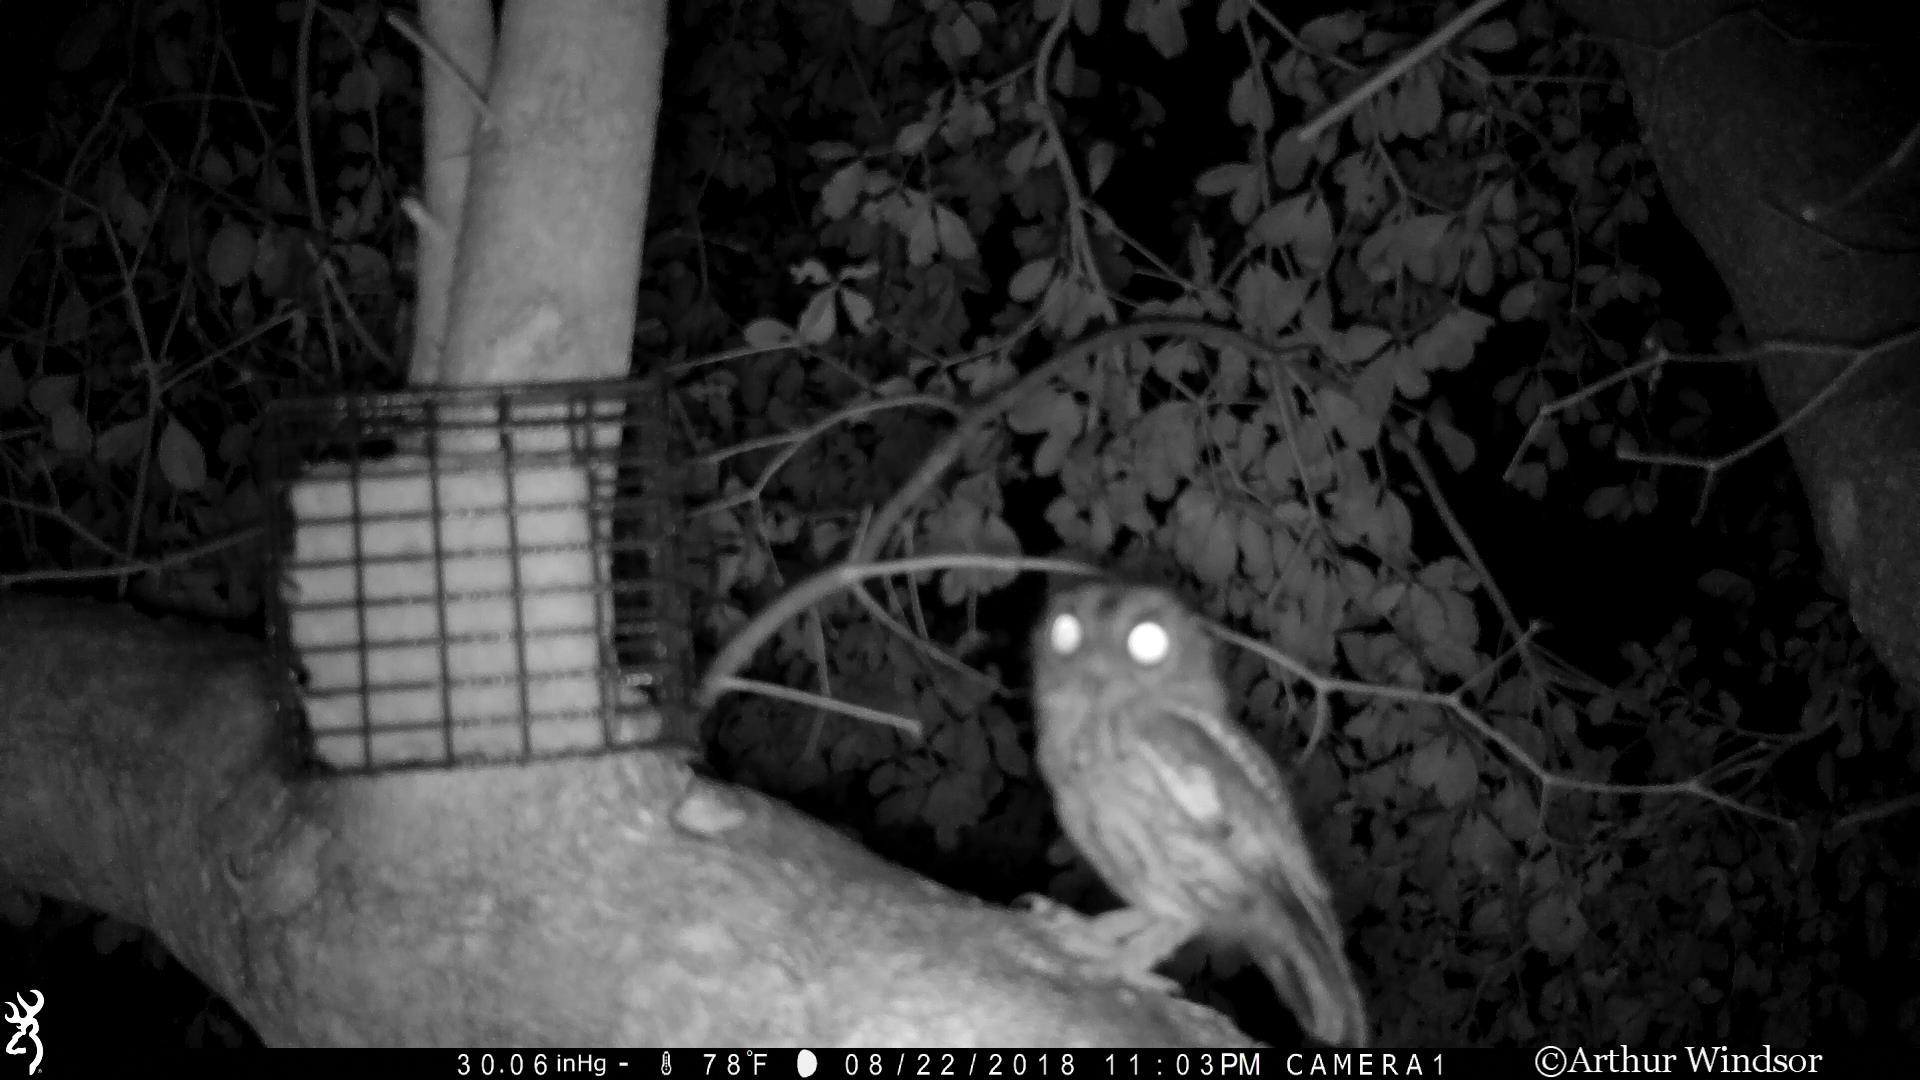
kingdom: Animalia
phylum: Chordata
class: Aves
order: Strigiformes
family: Strigidae
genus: Megascops
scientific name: Megascops asio
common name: Eastern screech-owl
